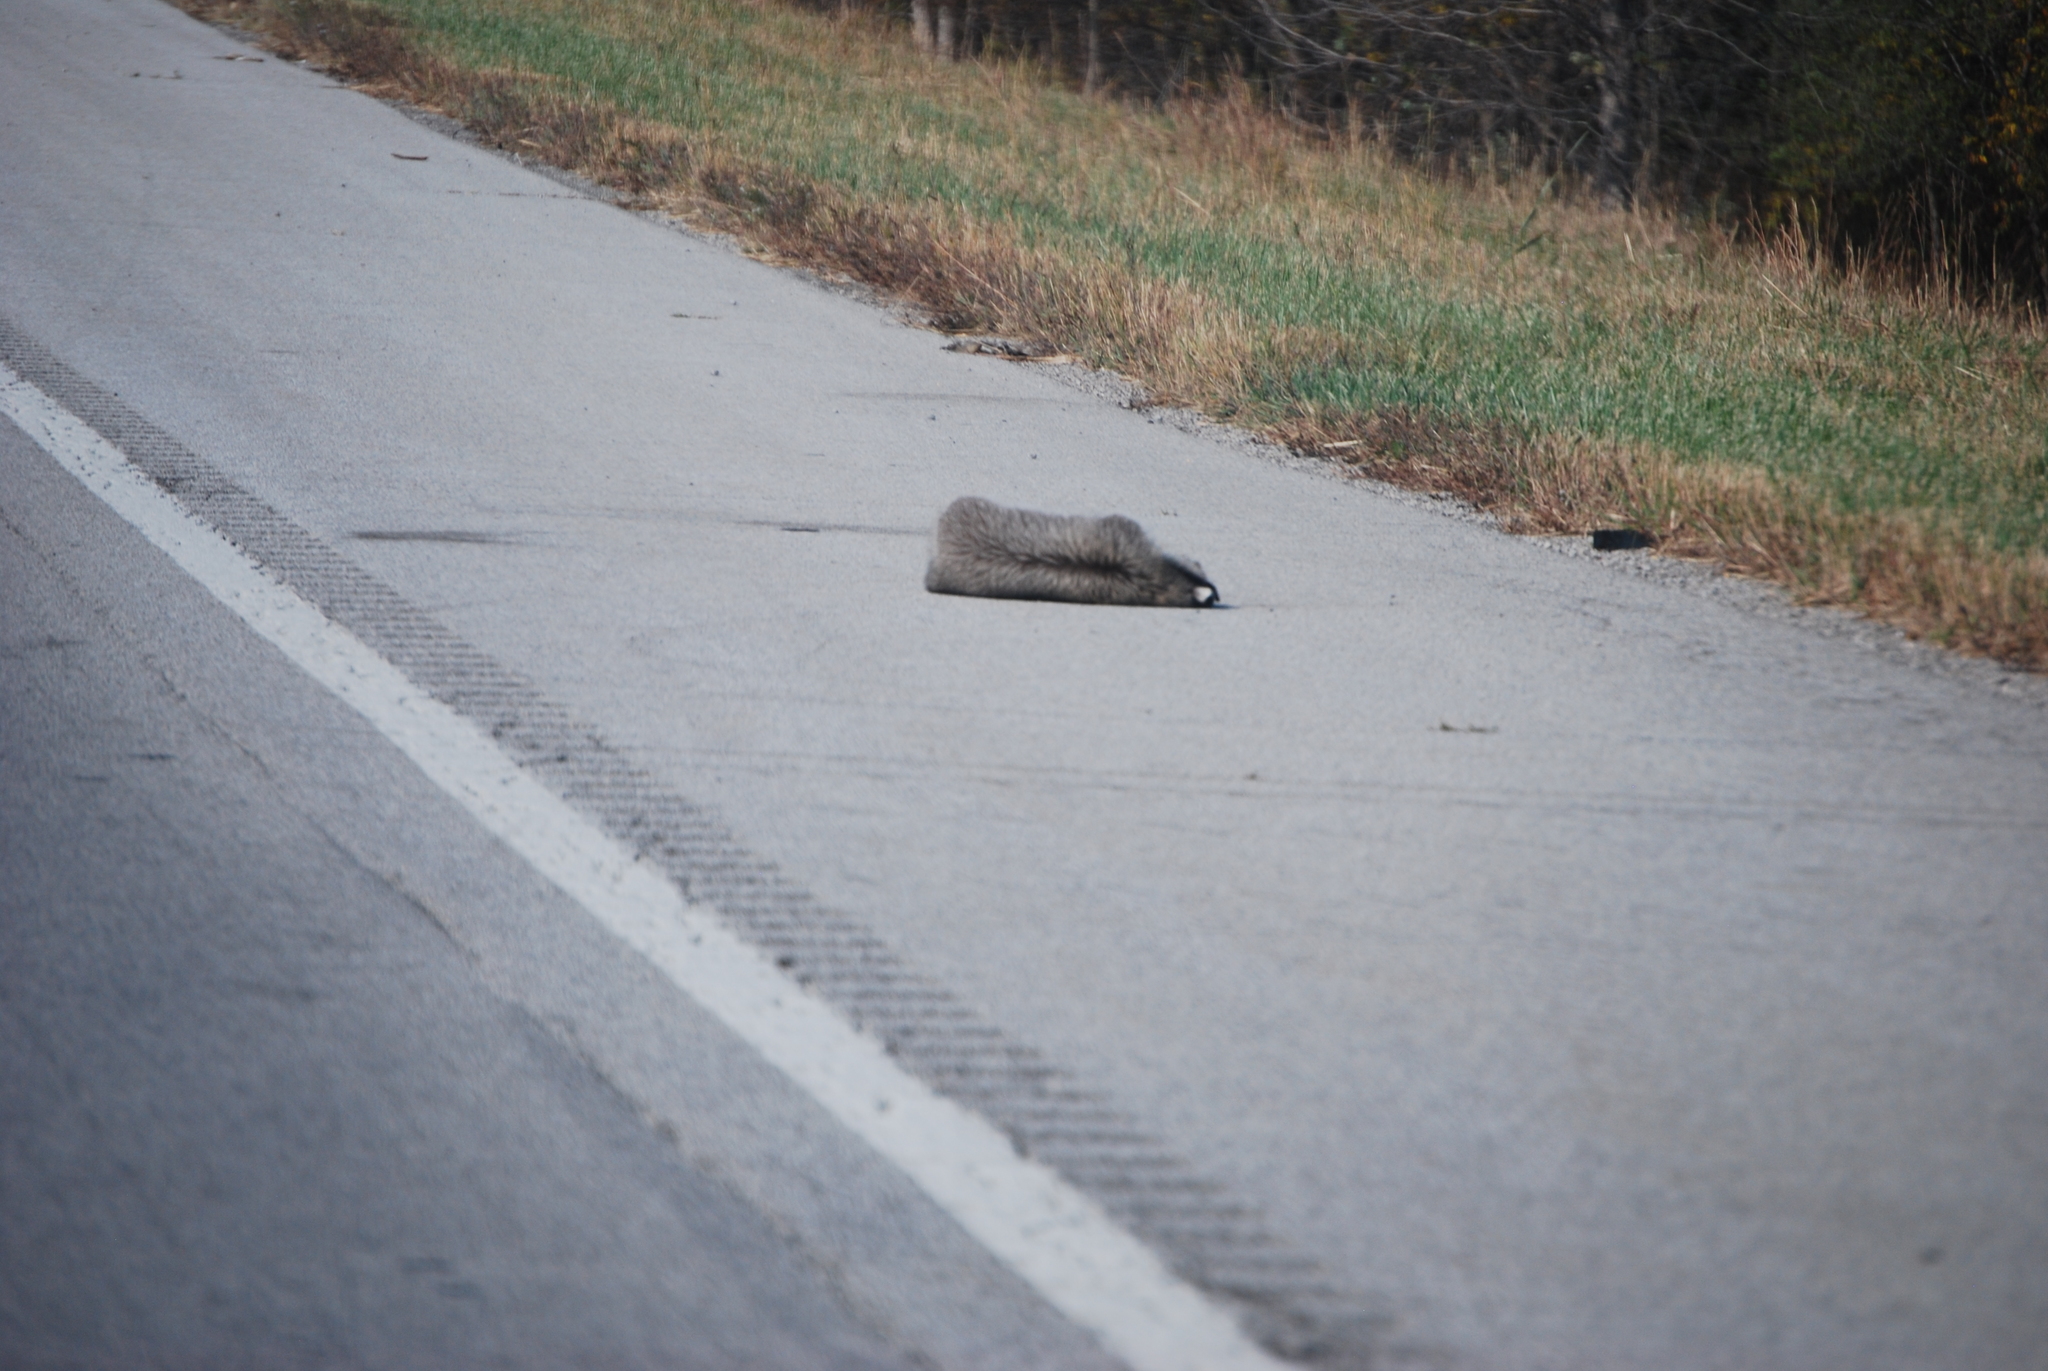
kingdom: Animalia
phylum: Chordata
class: Mammalia
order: Carnivora
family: Procyonidae
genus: Procyon
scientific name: Procyon lotor
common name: Raccoon
